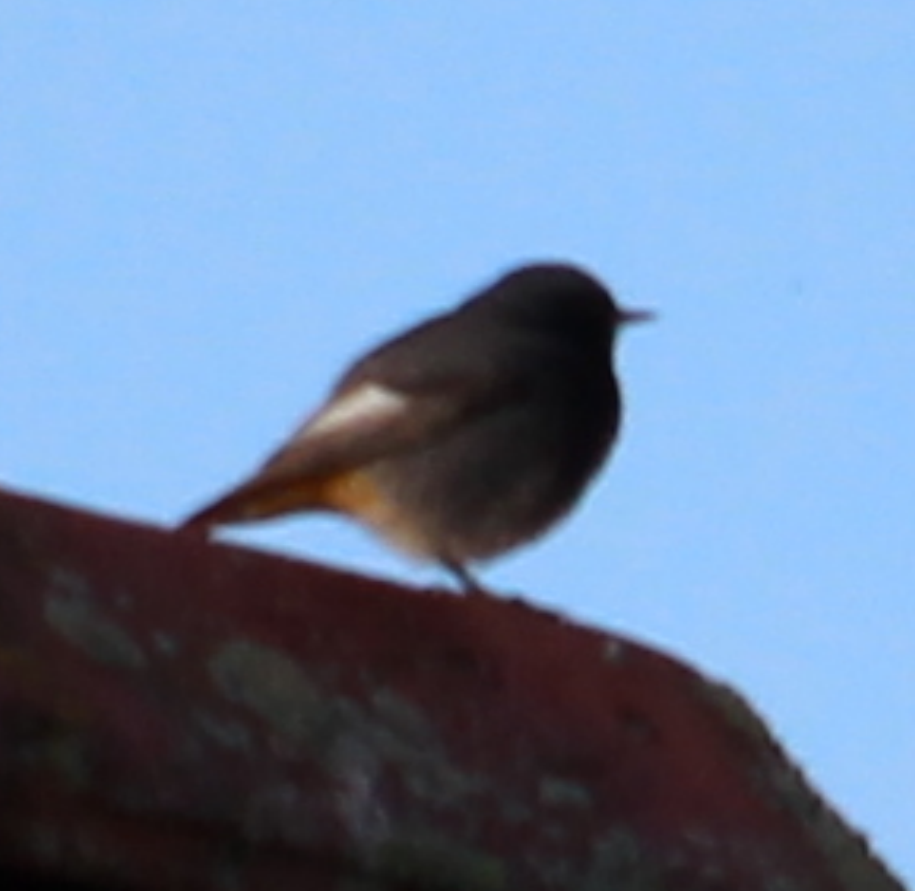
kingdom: Animalia
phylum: Chordata
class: Aves
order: Passeriformes
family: Muscicapidae
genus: Phoenicurus
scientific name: Phoenicurus ochruros
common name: Black redstart
